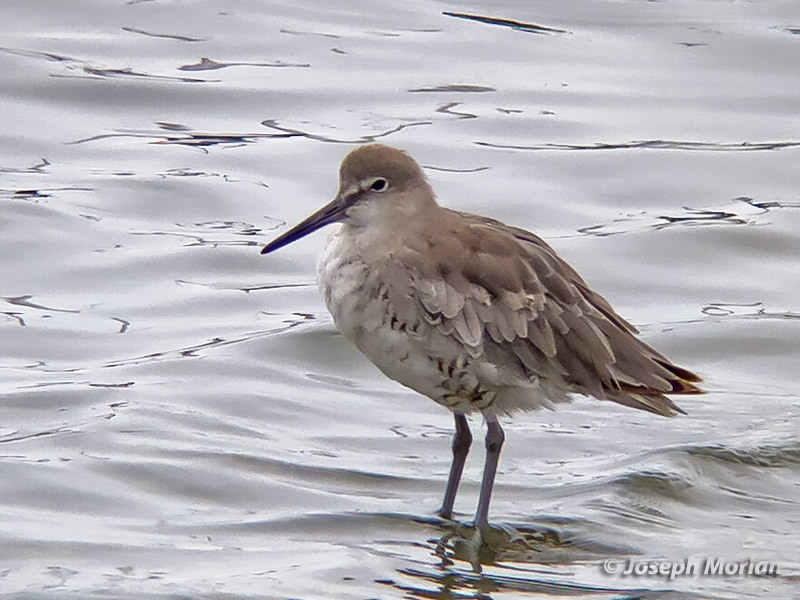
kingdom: Animalia
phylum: Chordata
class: Aves
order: Charadriiformes
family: Scolopacidae
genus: Tringa
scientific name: Tringa semipalmata
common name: Willet
